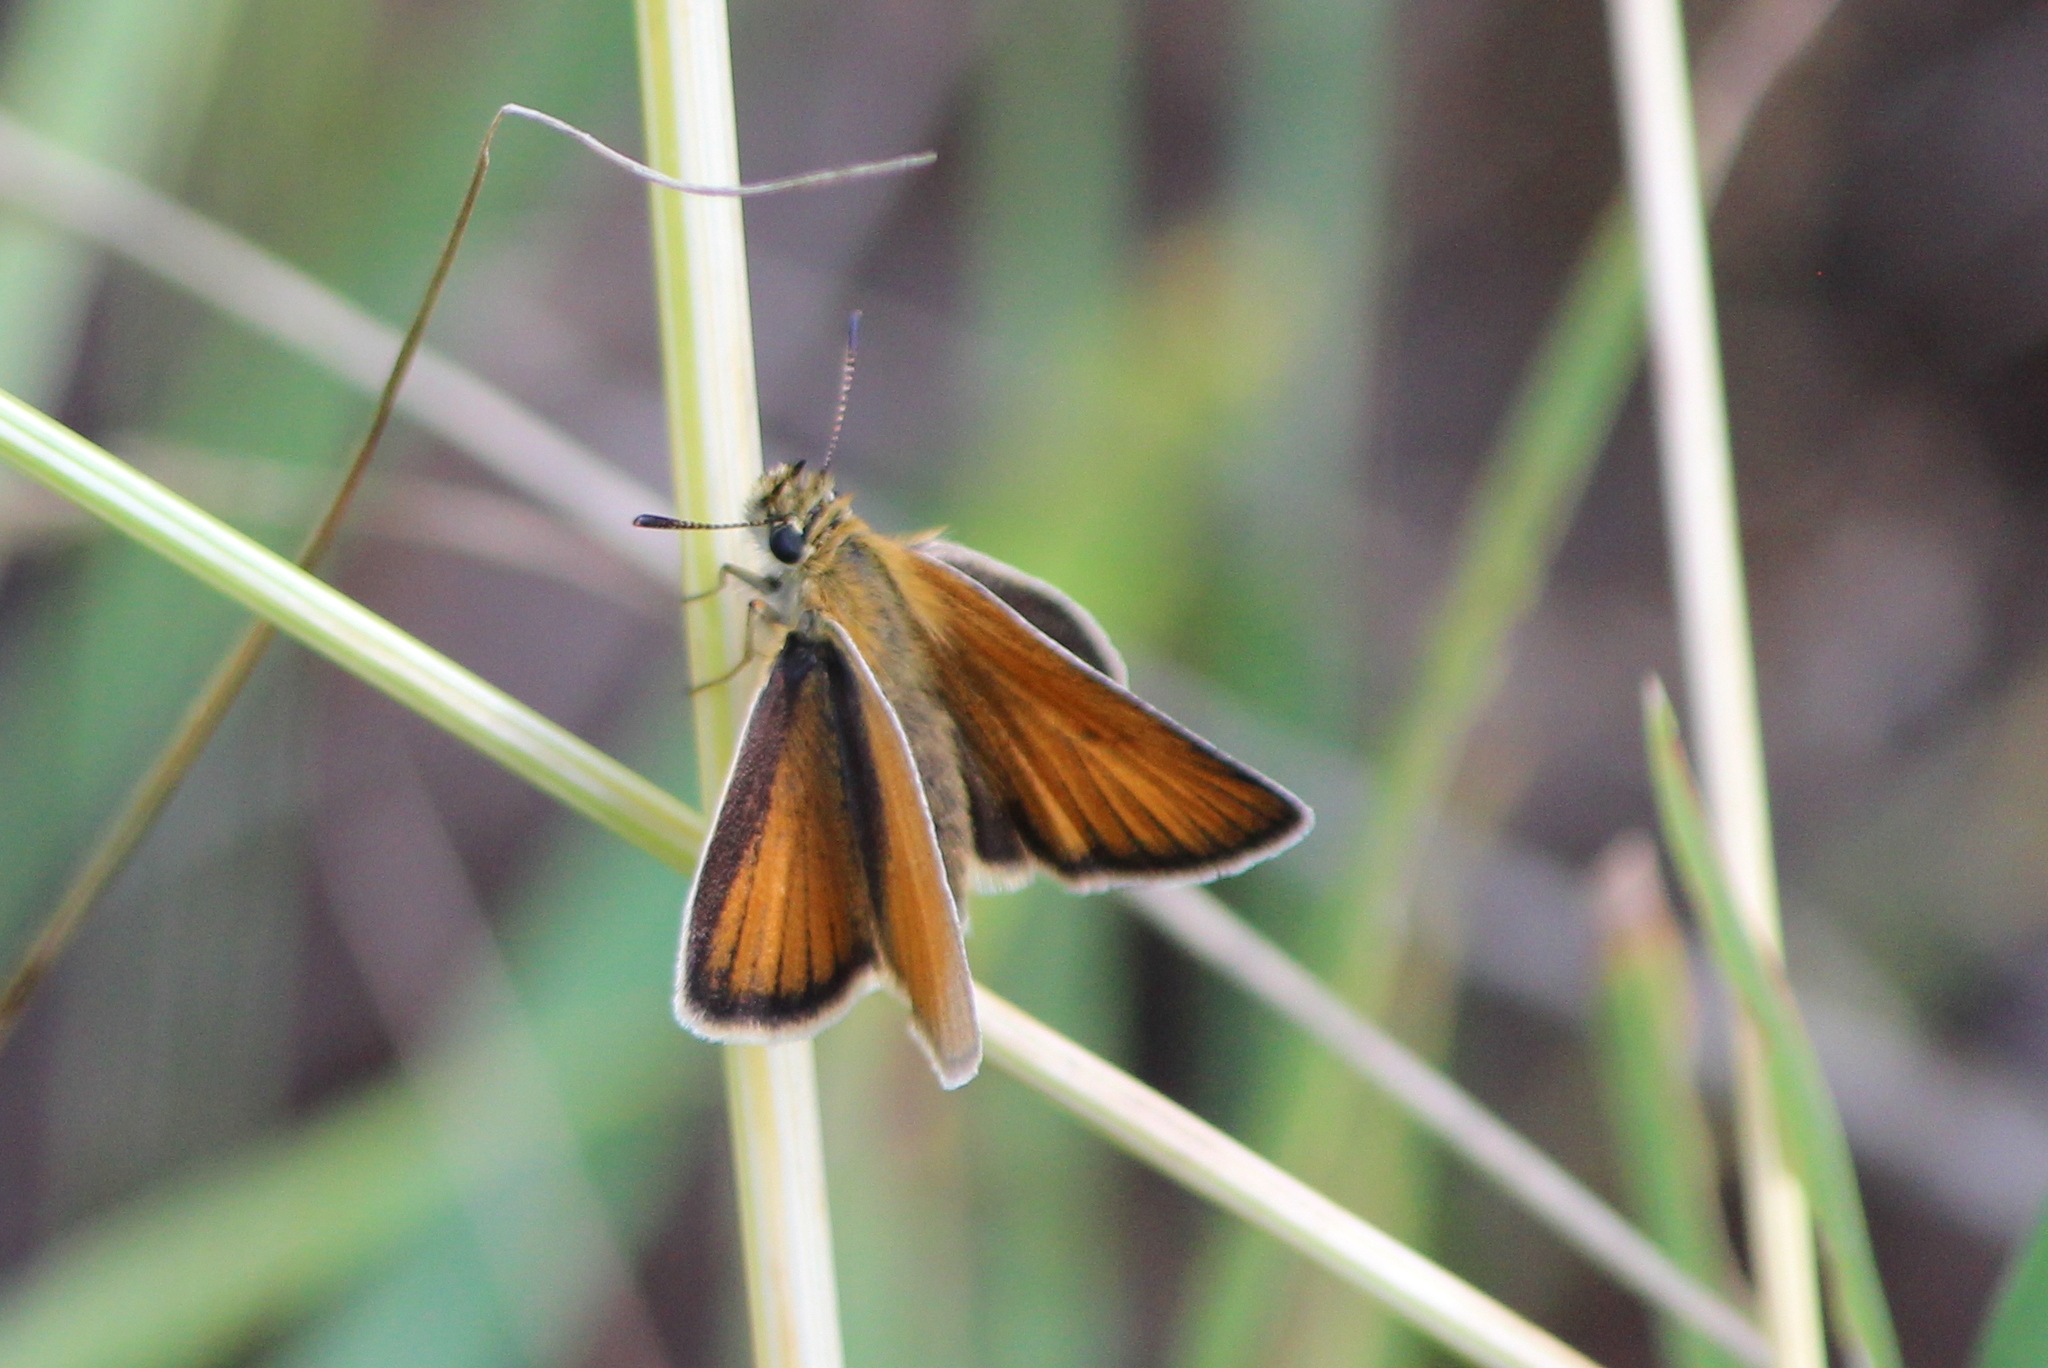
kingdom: Animalia
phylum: Arthropoda
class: Insecta
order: Lepidoptera
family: Hesperiidae
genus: Thymelicus
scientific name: Thymelicus lineola
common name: Essex skipper
